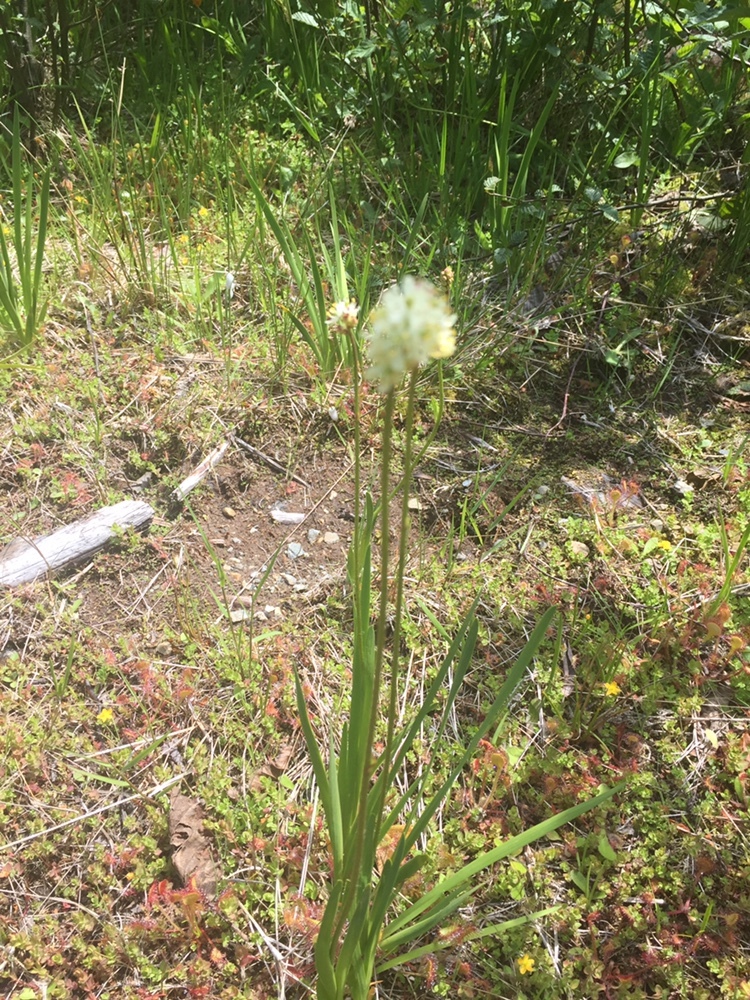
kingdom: Plantae
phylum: Tracheophyta
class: Liliopsida
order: Alismatales
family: Tofieldiaceae
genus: Triantha
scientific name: Triantha occidentalis
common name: Western false asphodel
